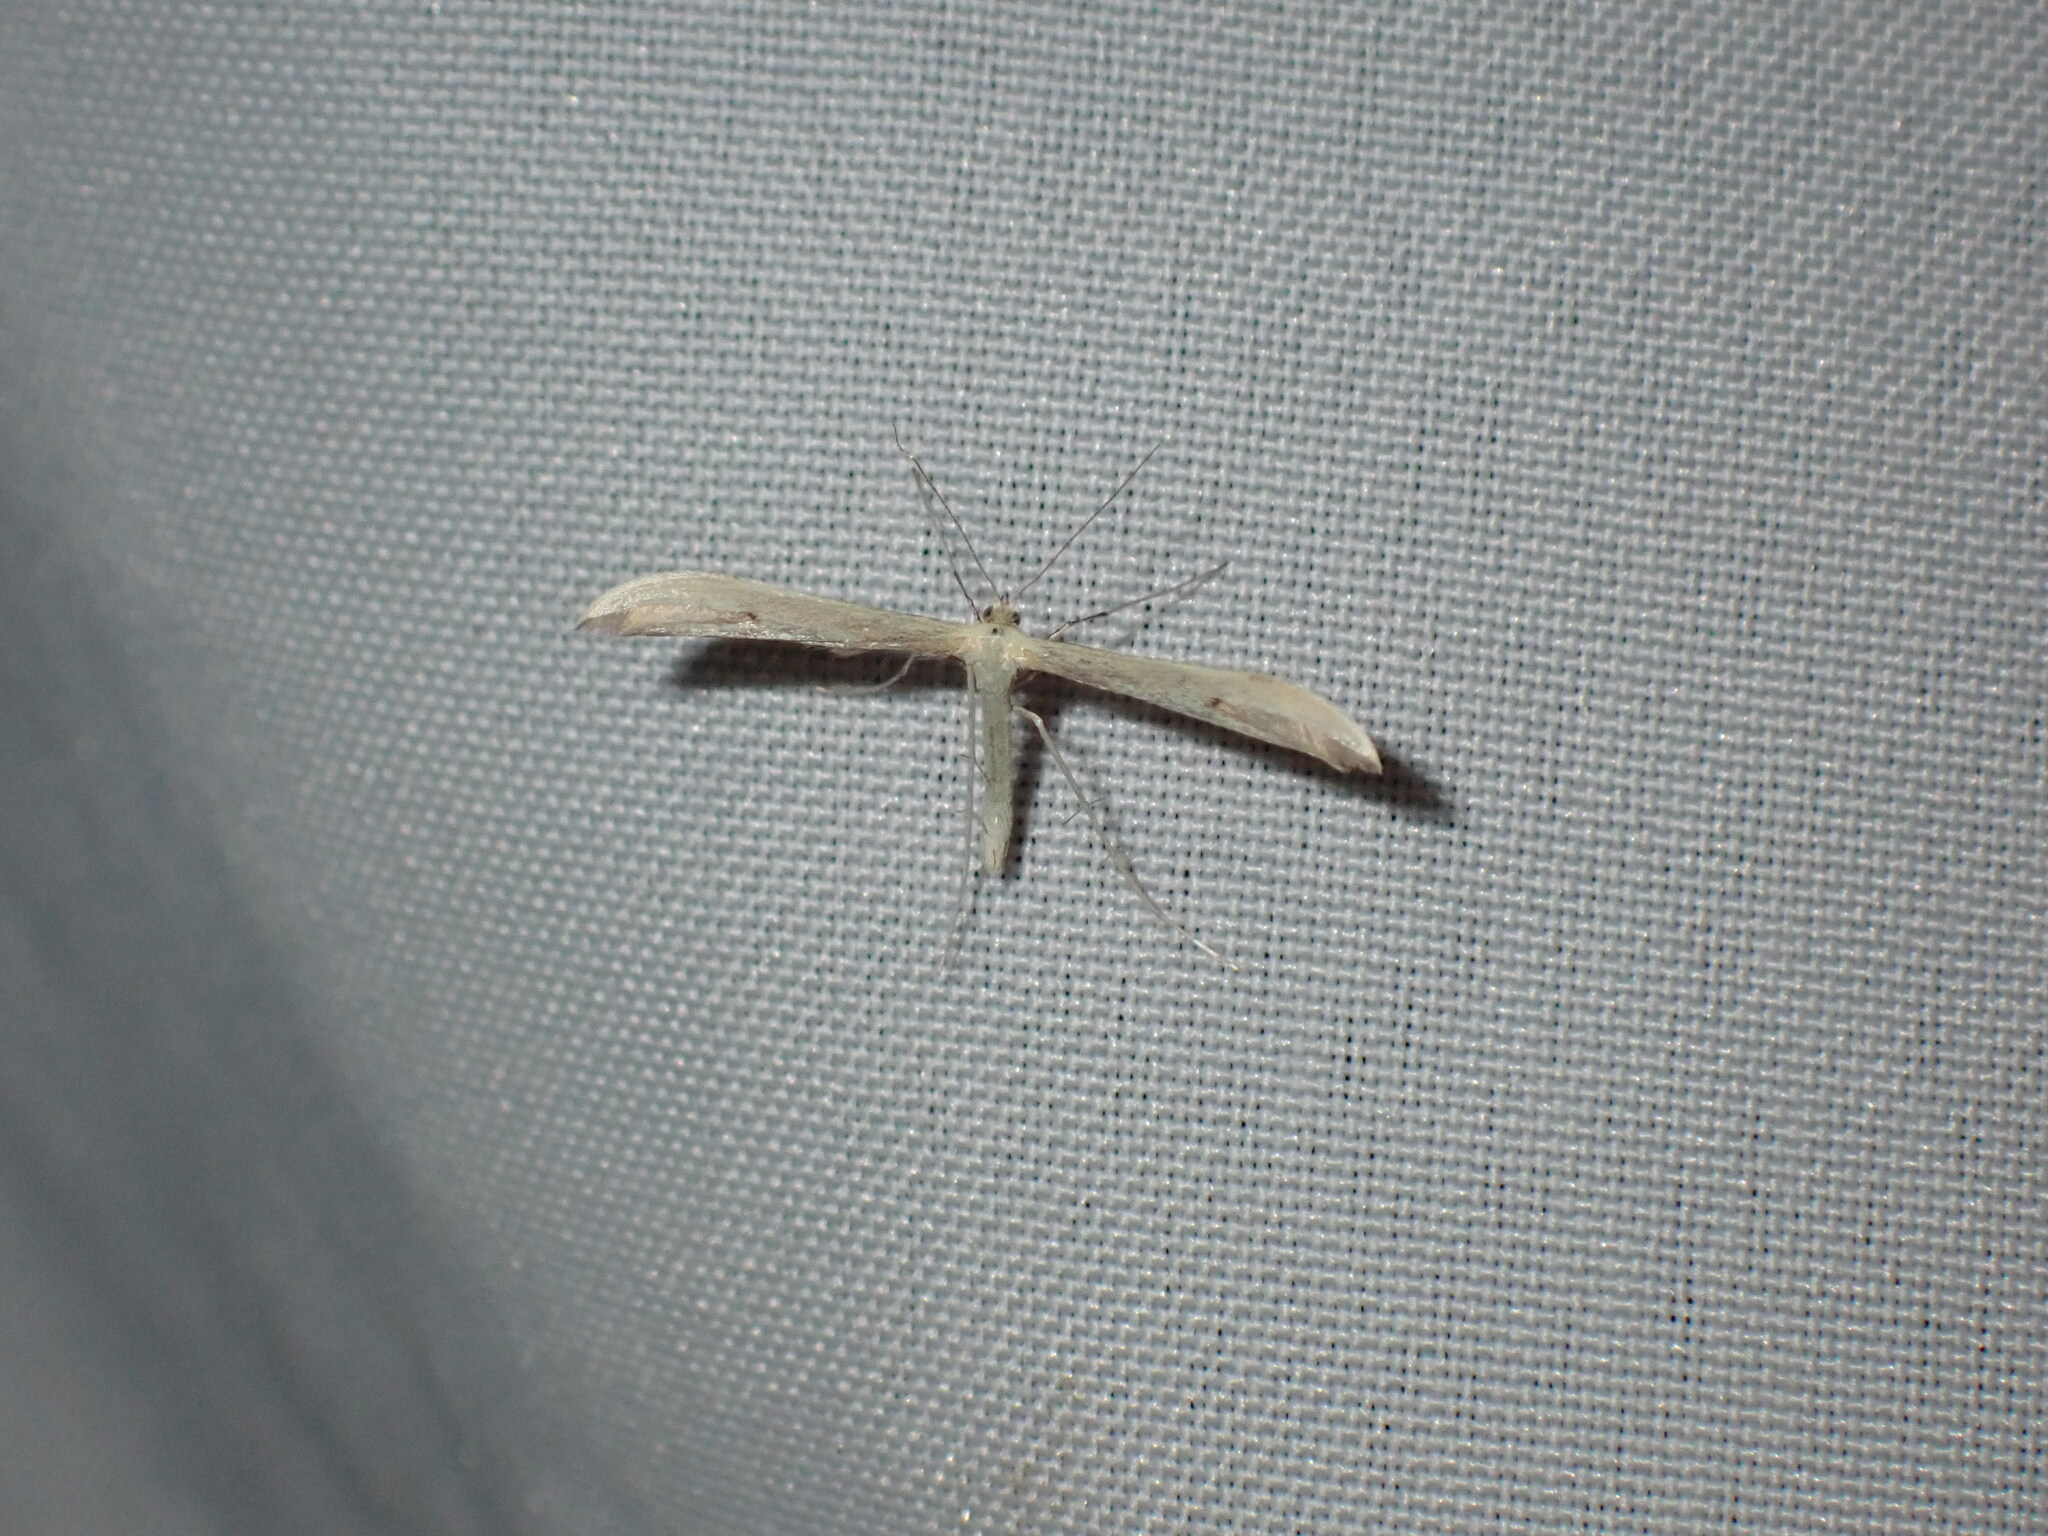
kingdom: Animalia
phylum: Arthropoda
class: Insecta
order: Lepidoptera
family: Pterophoridae
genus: Hellinsia
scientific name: Hellinsia homodactylus
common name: Plain plume moth
